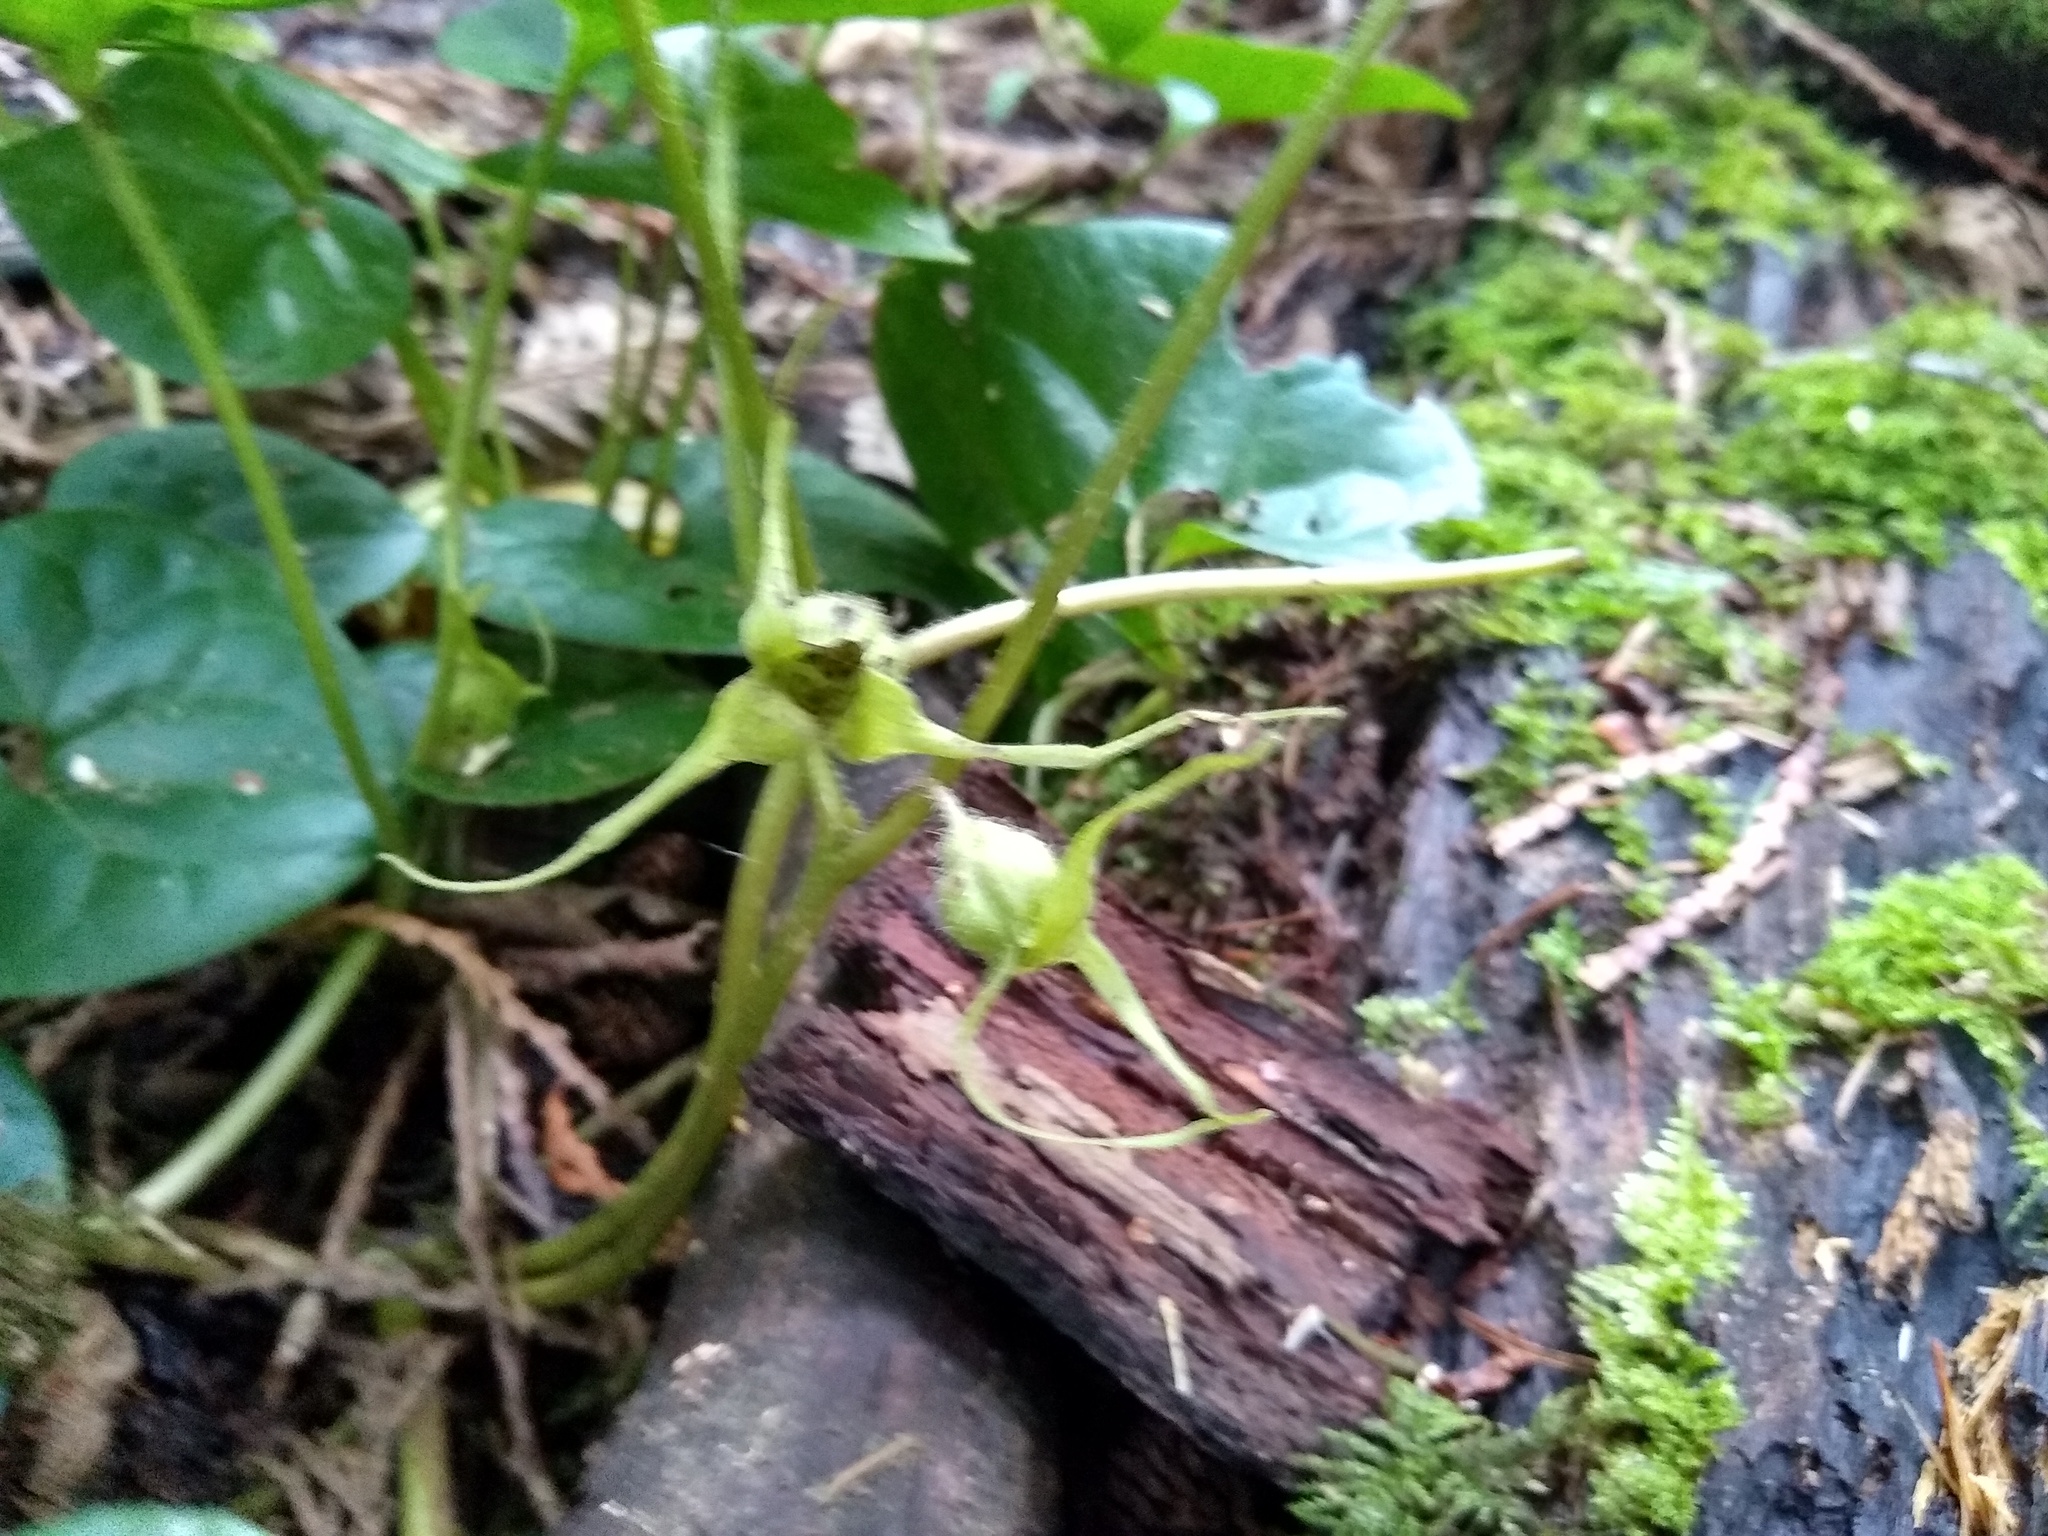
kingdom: Plantae
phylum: Tracheophyta
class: Magnoliopsida
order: Piperales
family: Aristolochiaceae
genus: Asarum
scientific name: Asarum caudatum
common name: Wild ginger
